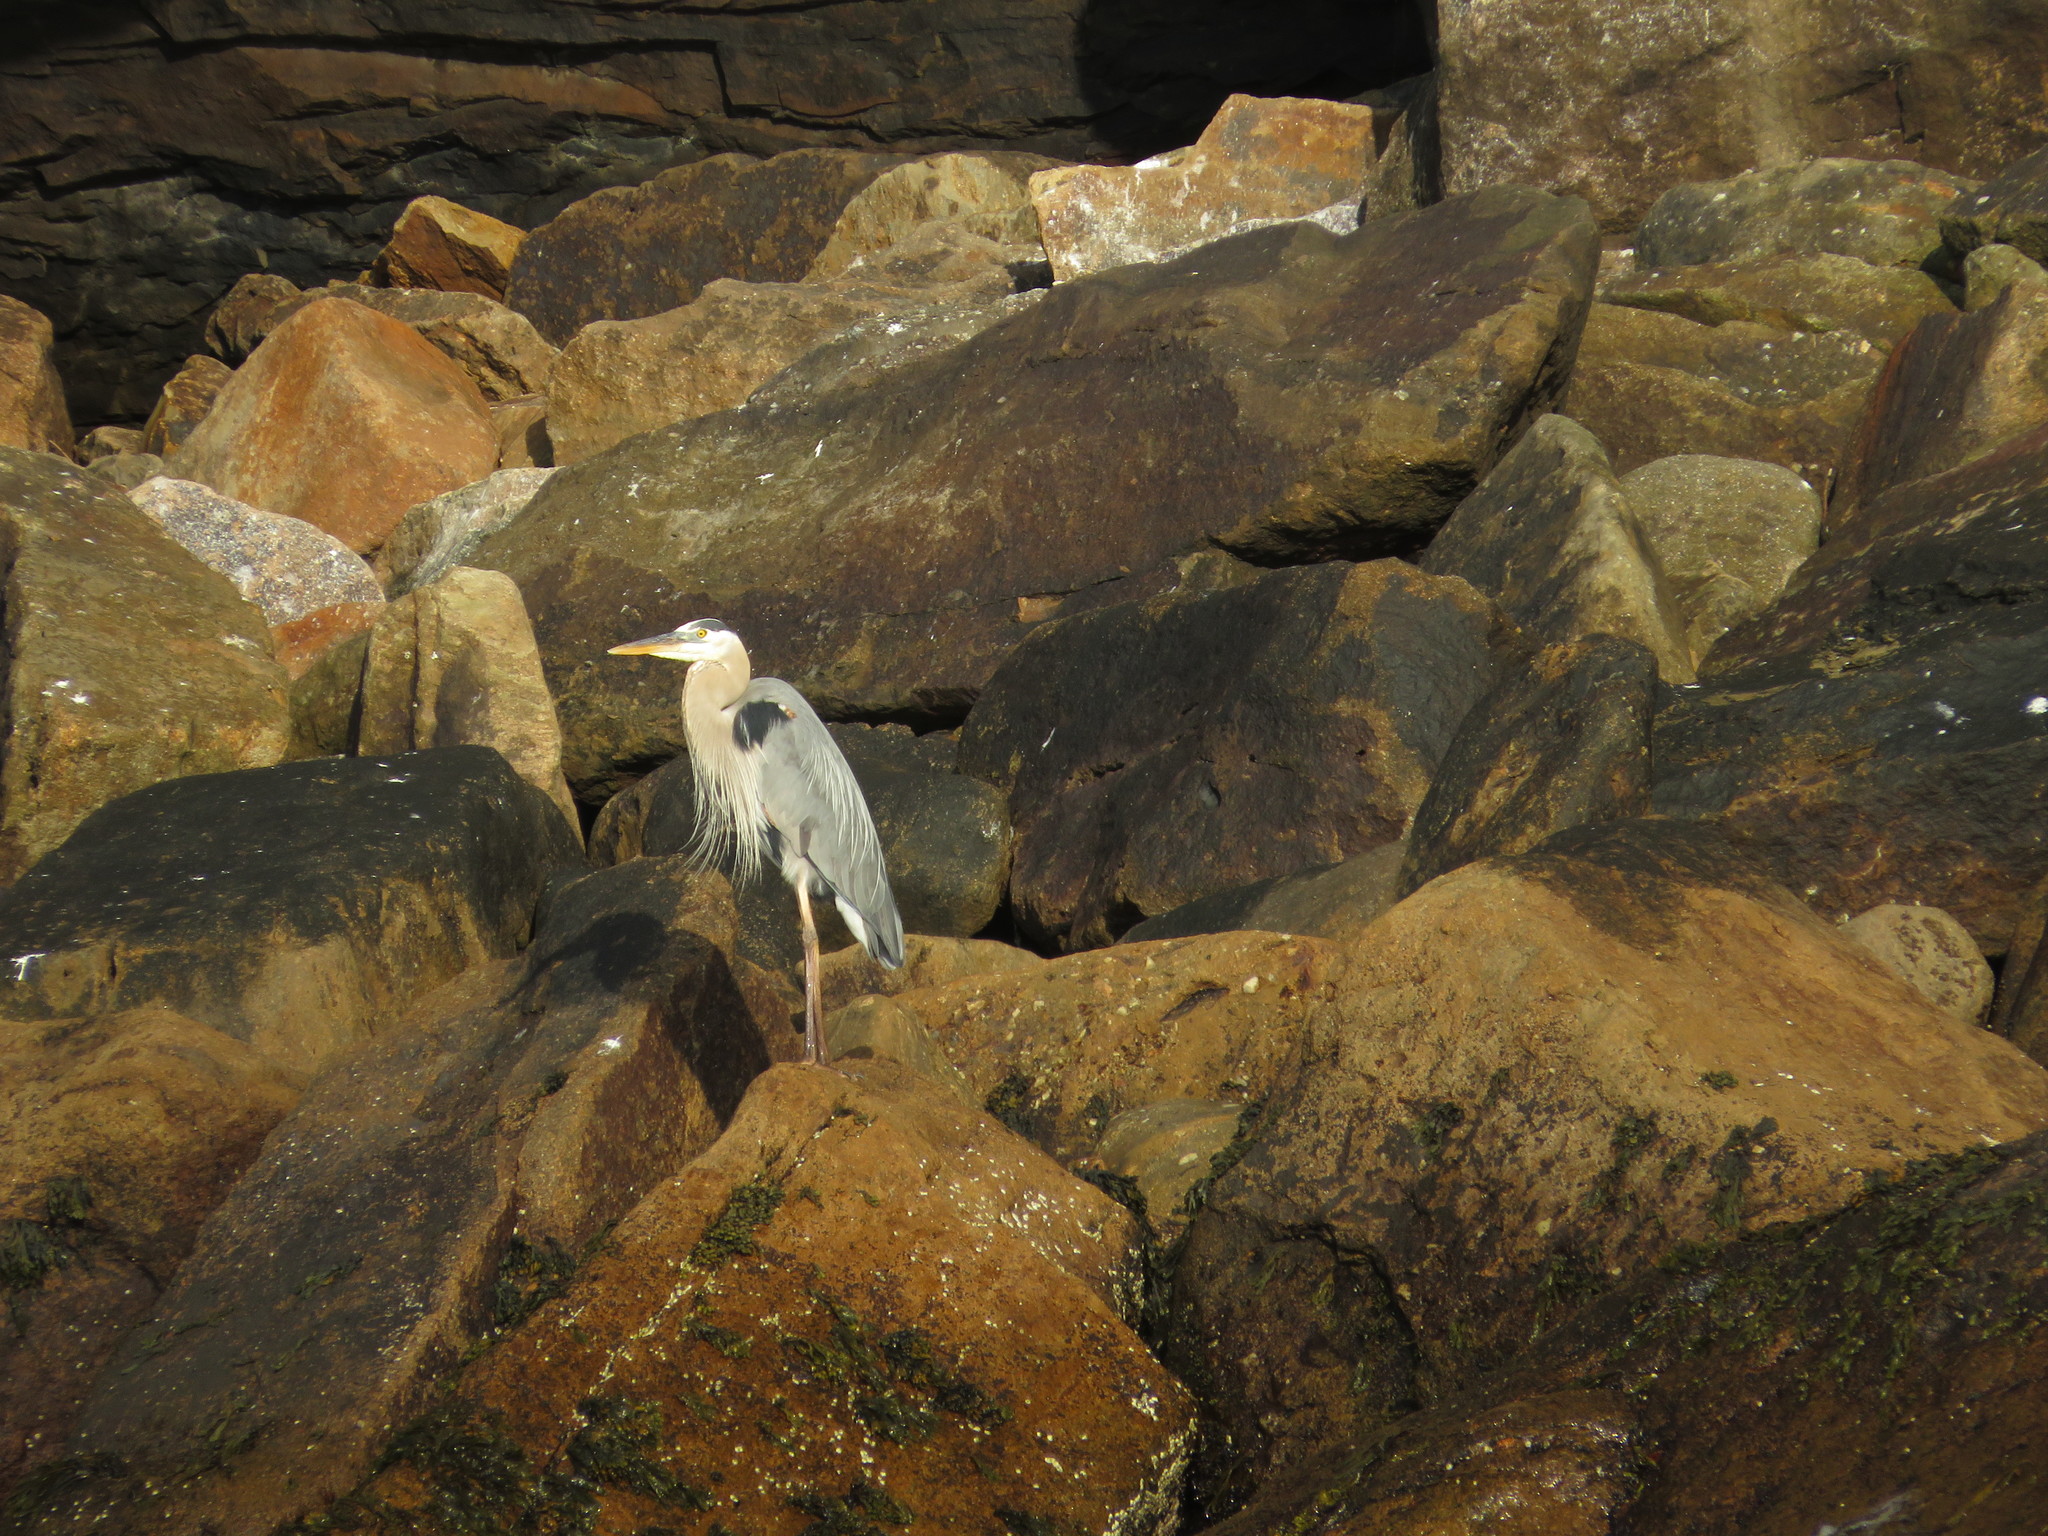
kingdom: Animalia
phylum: Chordata
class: Aves
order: Pelecaniformes
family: Ardeidae
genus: Ardea
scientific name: Ardea herodias
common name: Great blue heron
